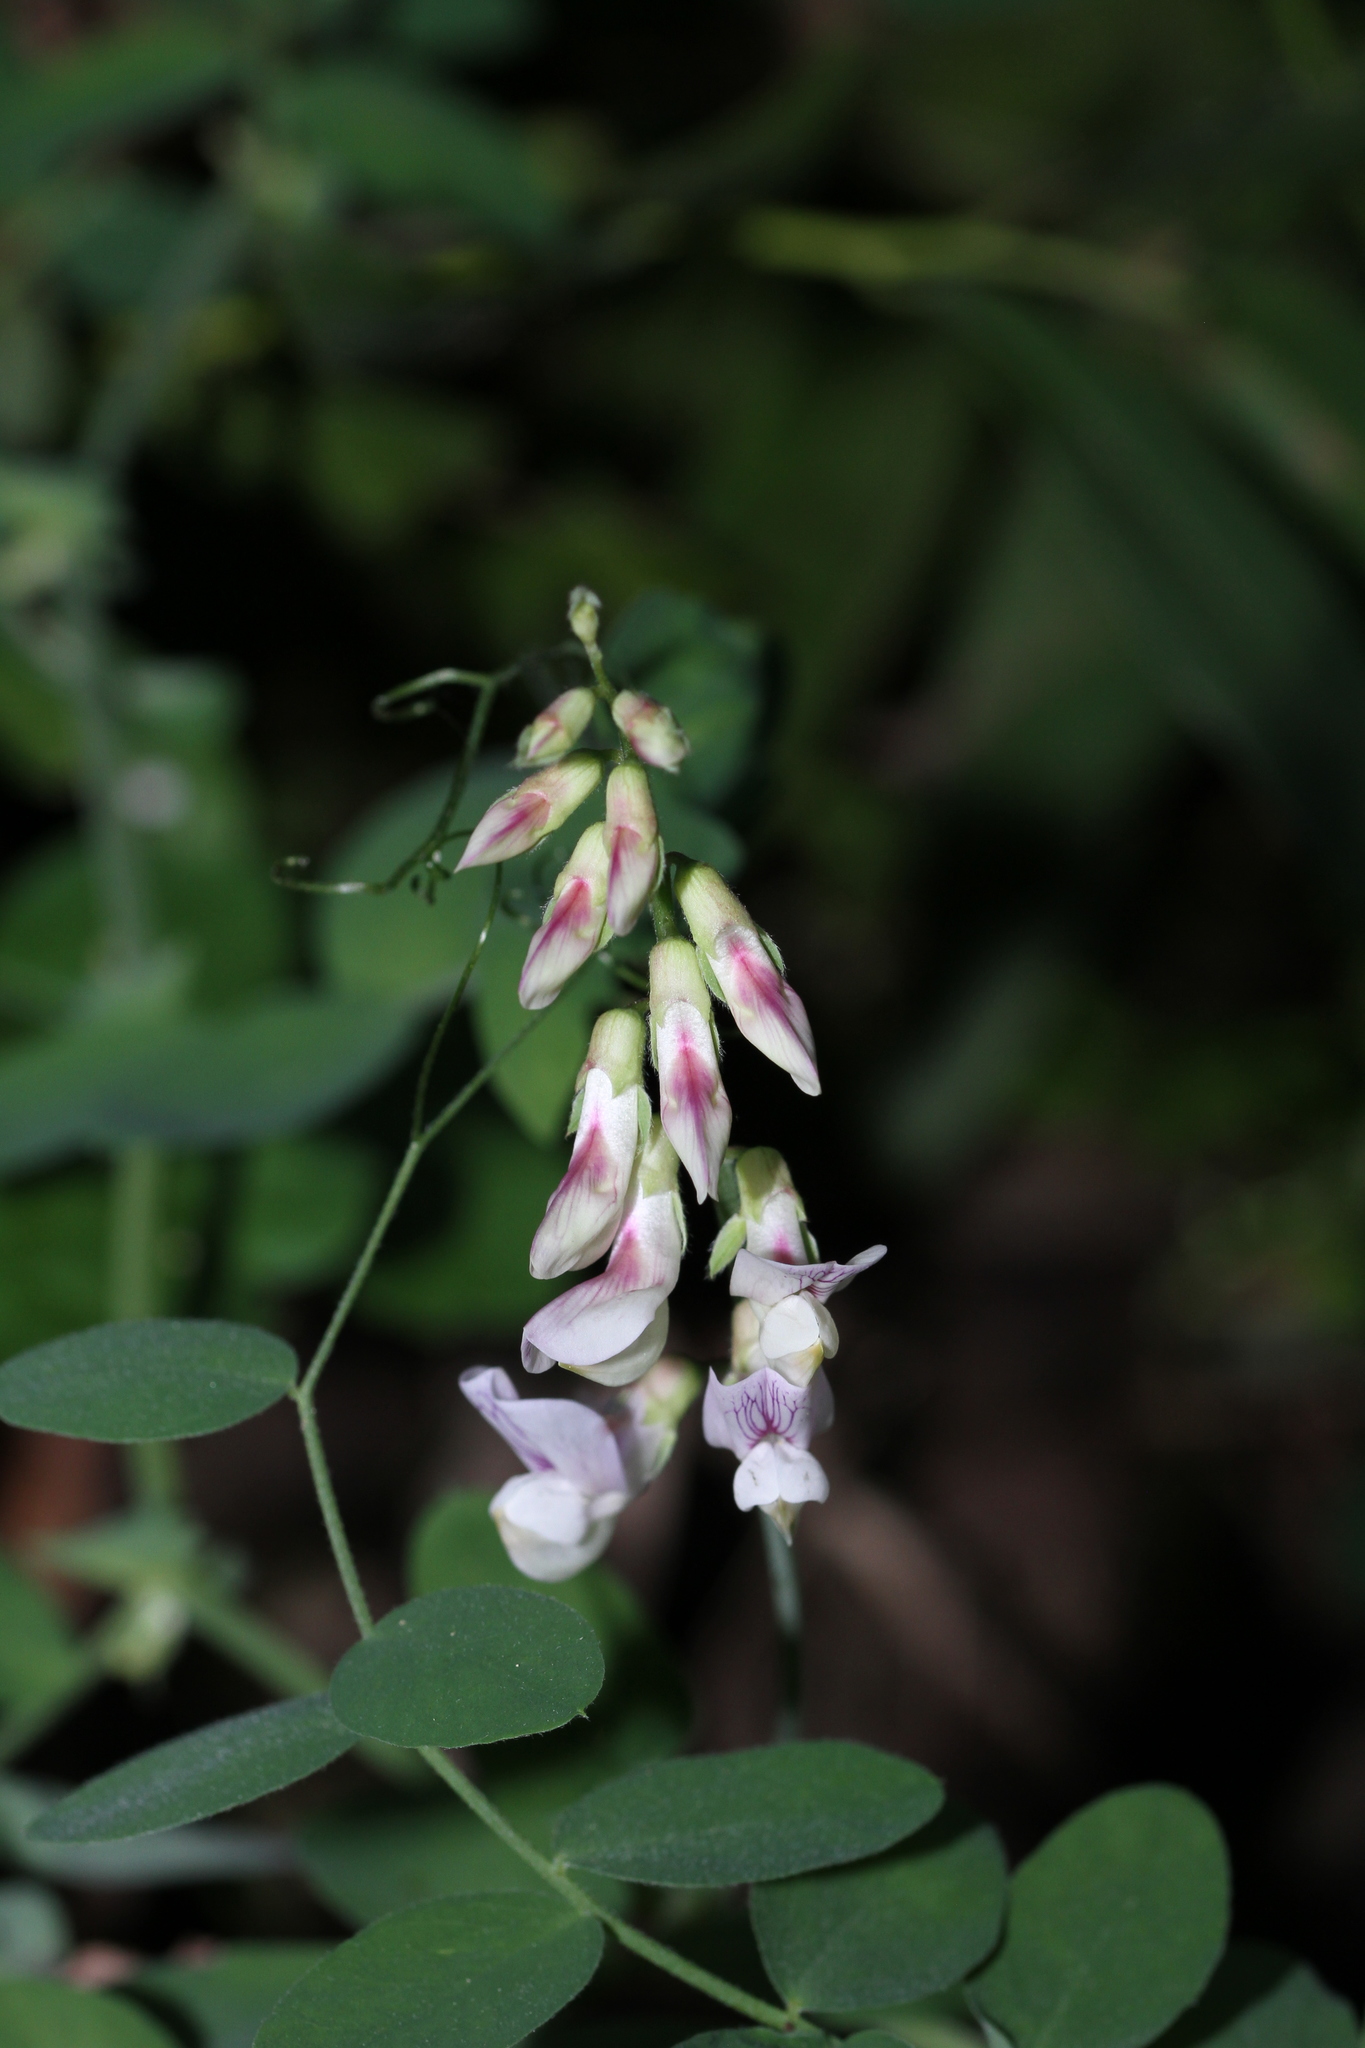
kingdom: Plantae
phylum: Tracheophyta
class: Magnoliopsida
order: Fabales
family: Fabaceae
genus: Lathyrus
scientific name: Lathyrus vestitus
